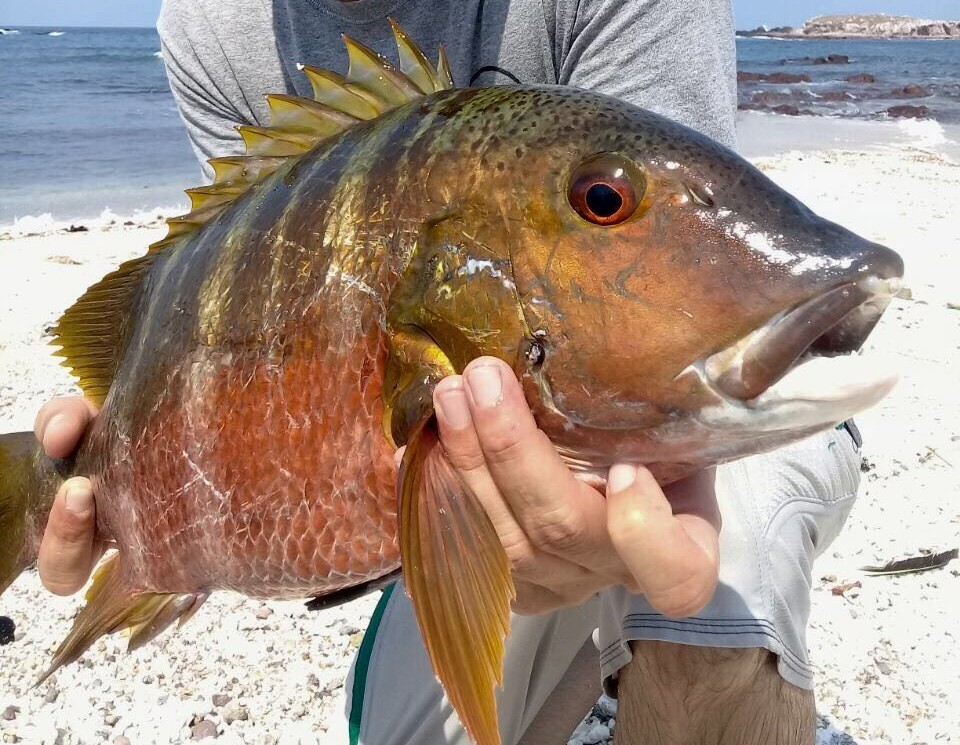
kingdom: Animalia
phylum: Chordata
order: Perciformes
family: Lutjanidae
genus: Hoplopagrus
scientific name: Hoplopagrus guentherii
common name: Barred pargo
